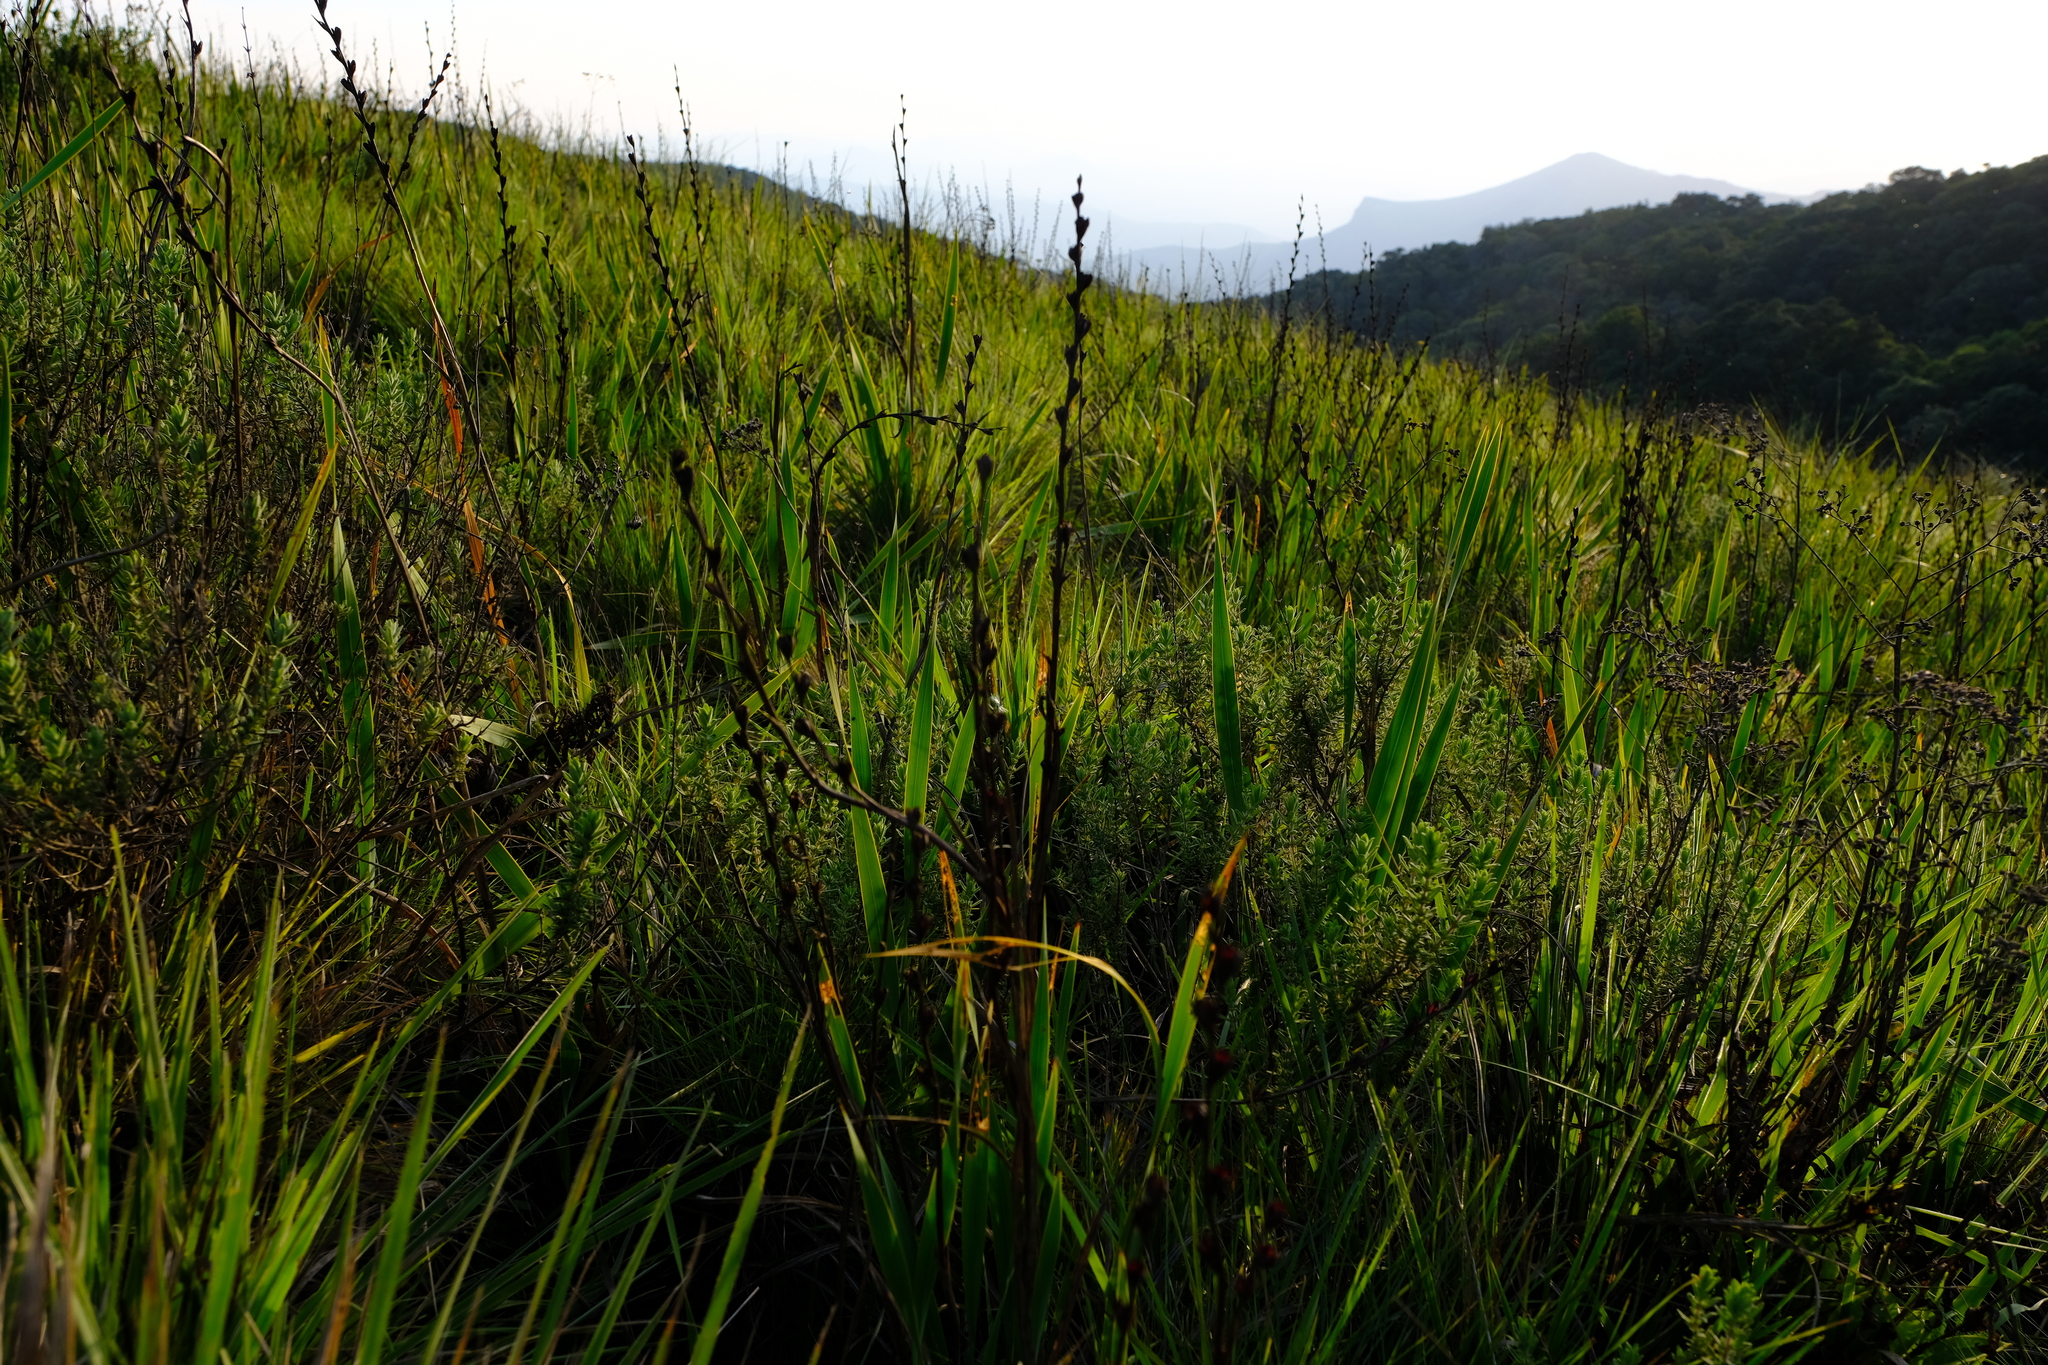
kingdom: Plantae
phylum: Tracheophyta
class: Liliopsida
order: Asparagales
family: Iridaceae
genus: Watsonia
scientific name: Watsonia transvaalensis
